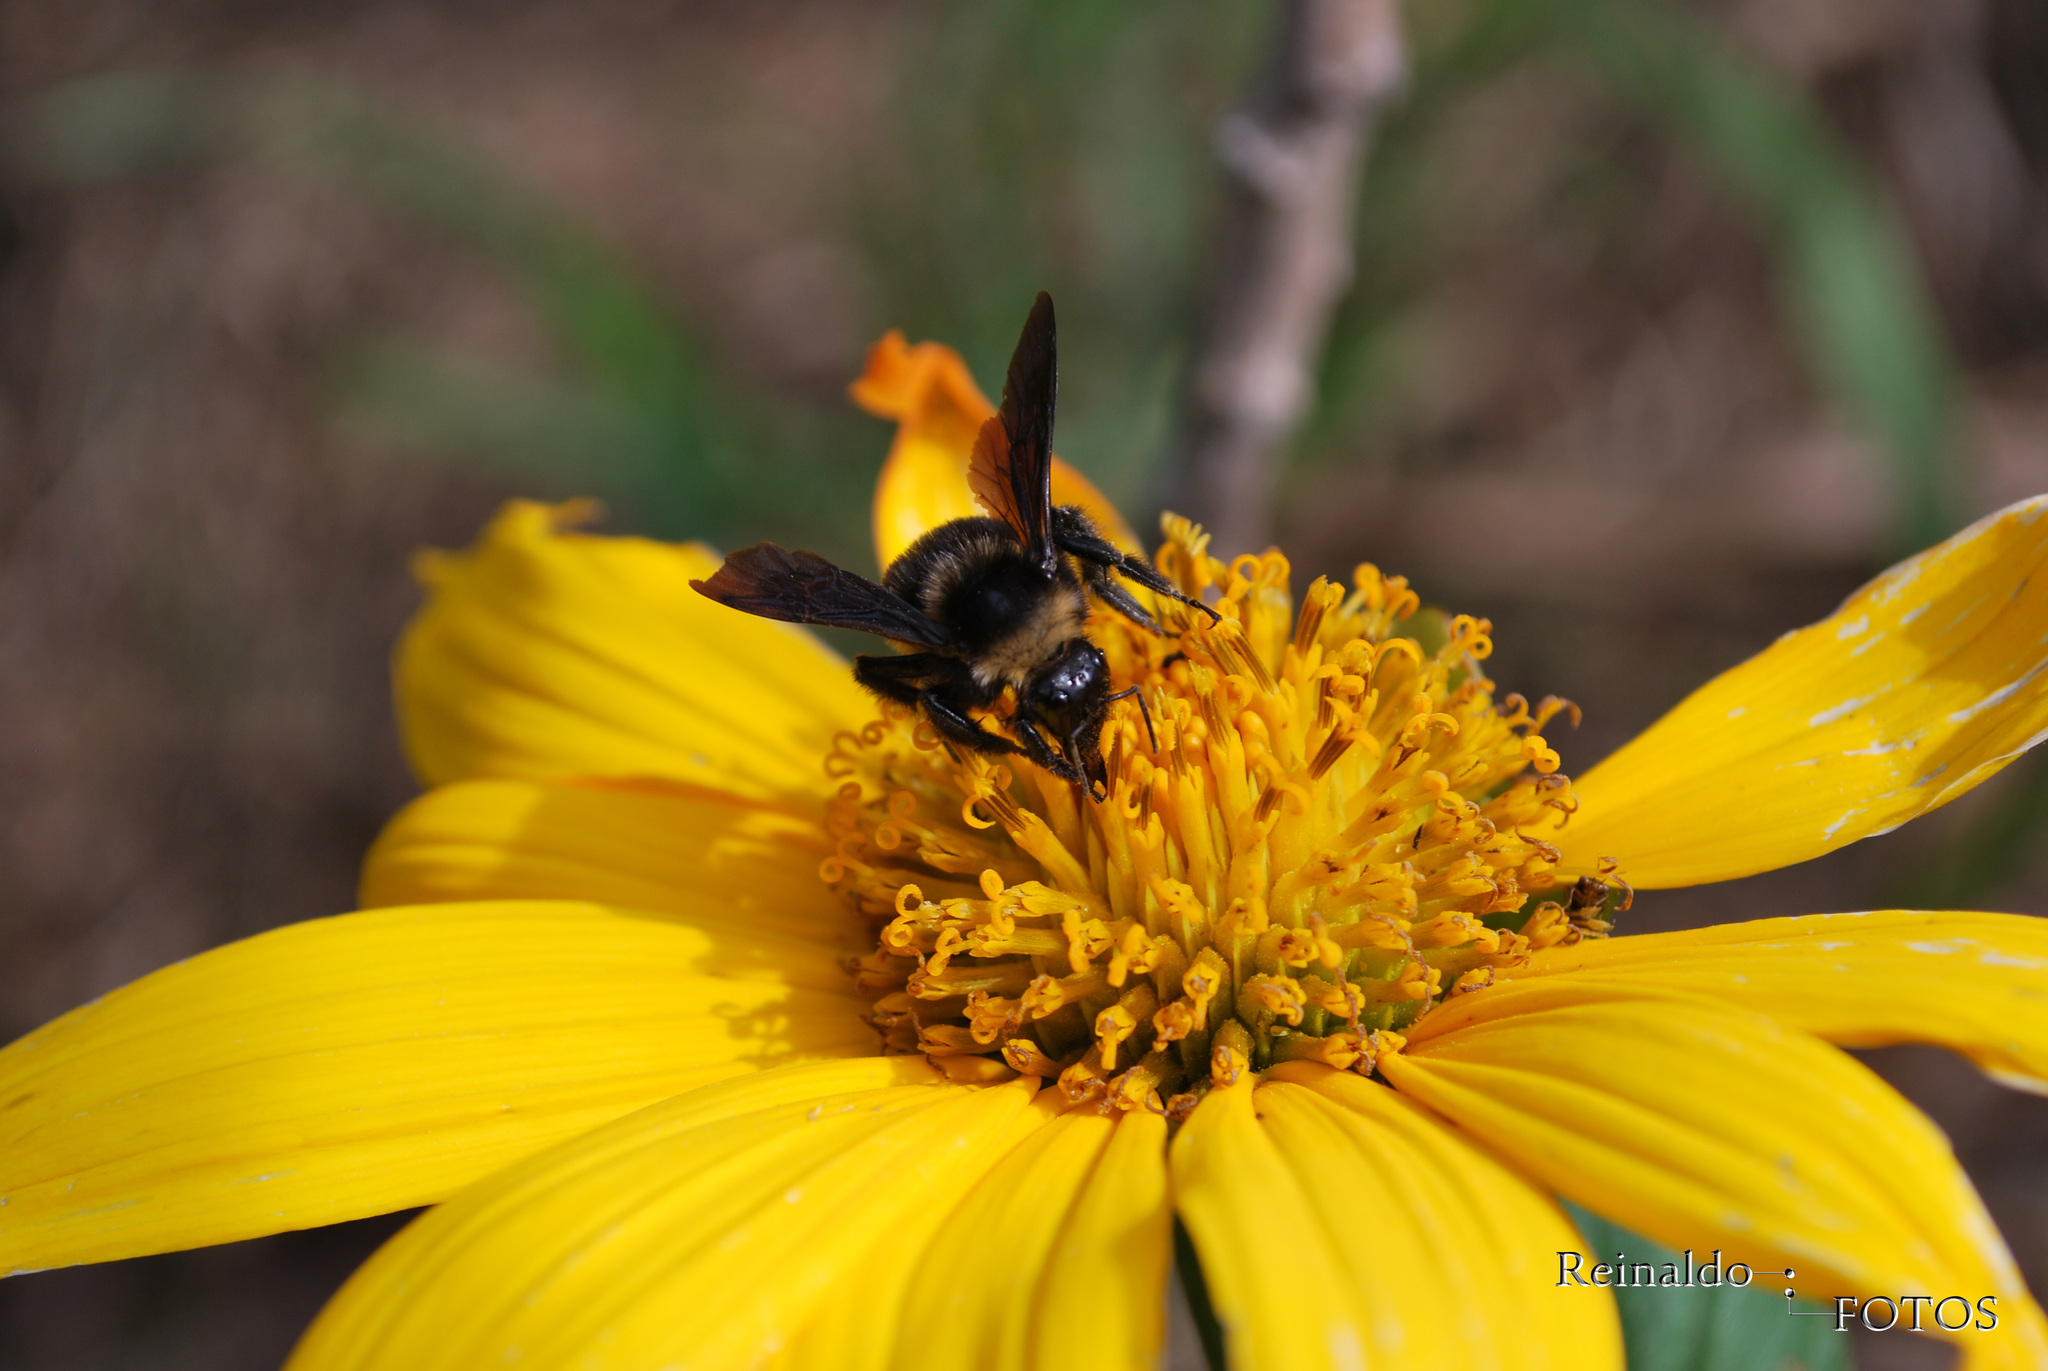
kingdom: Animalia
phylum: Arthropoda
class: Insecta
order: Hymenoptera
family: Apidae
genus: Bombus
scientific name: Bombus pauloensis
